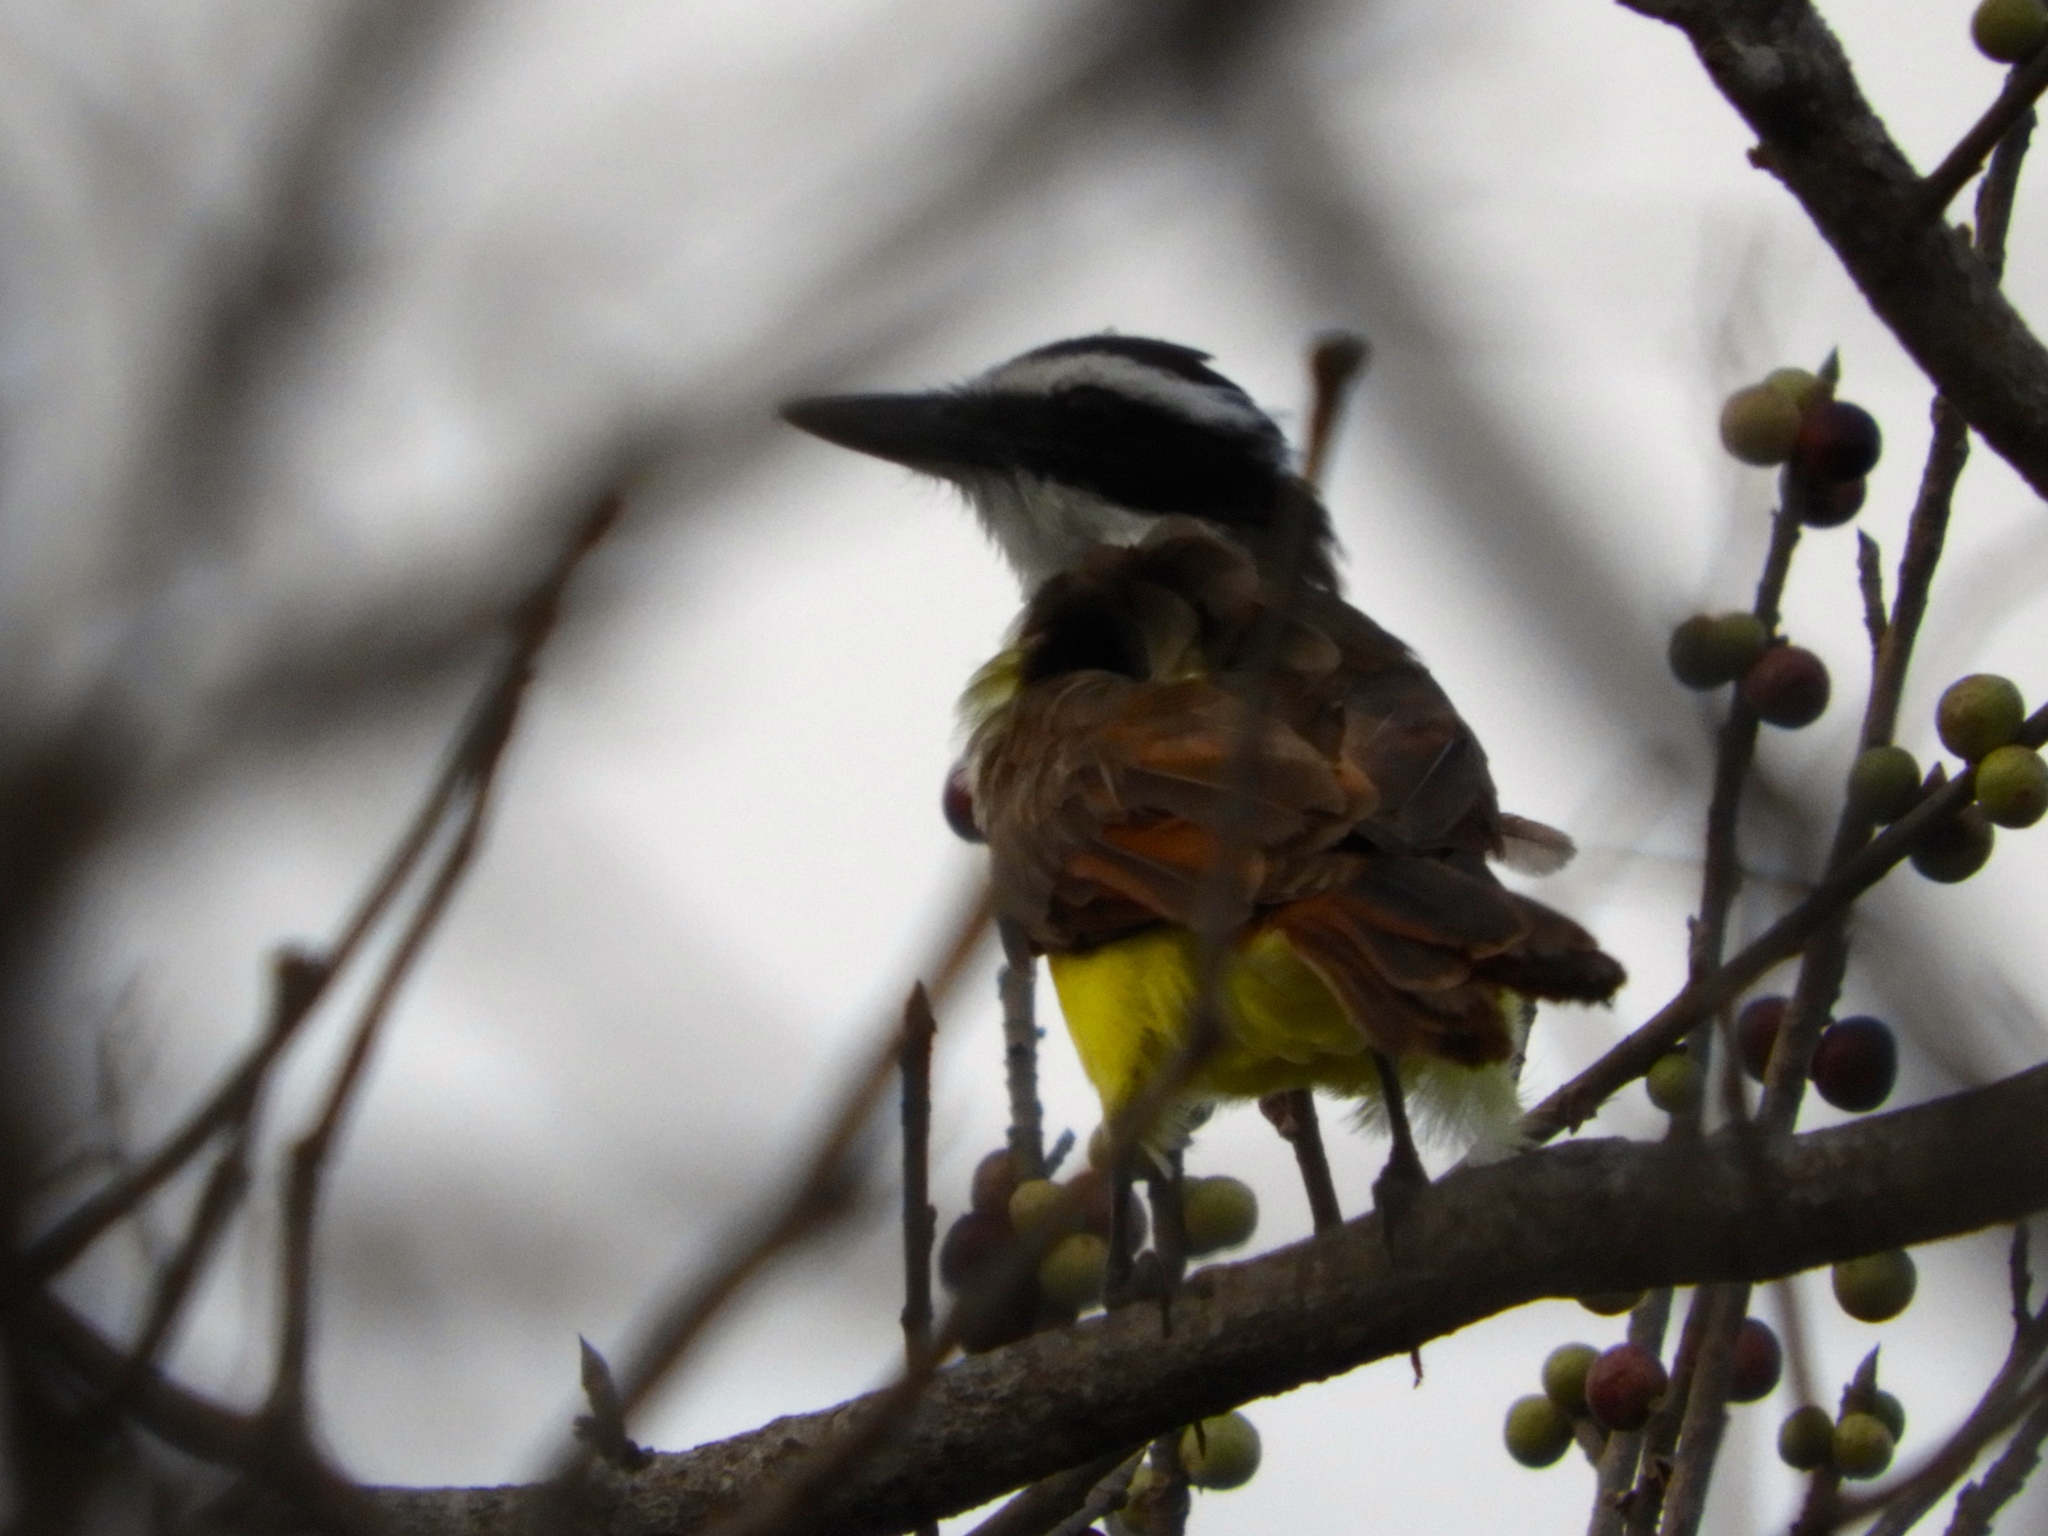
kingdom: Animalia
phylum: Chordata
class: Aves
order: Passeriformes
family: Tyrannidae
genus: Pitangus
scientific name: Pitangus sulphuratus
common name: Great kiskadee
